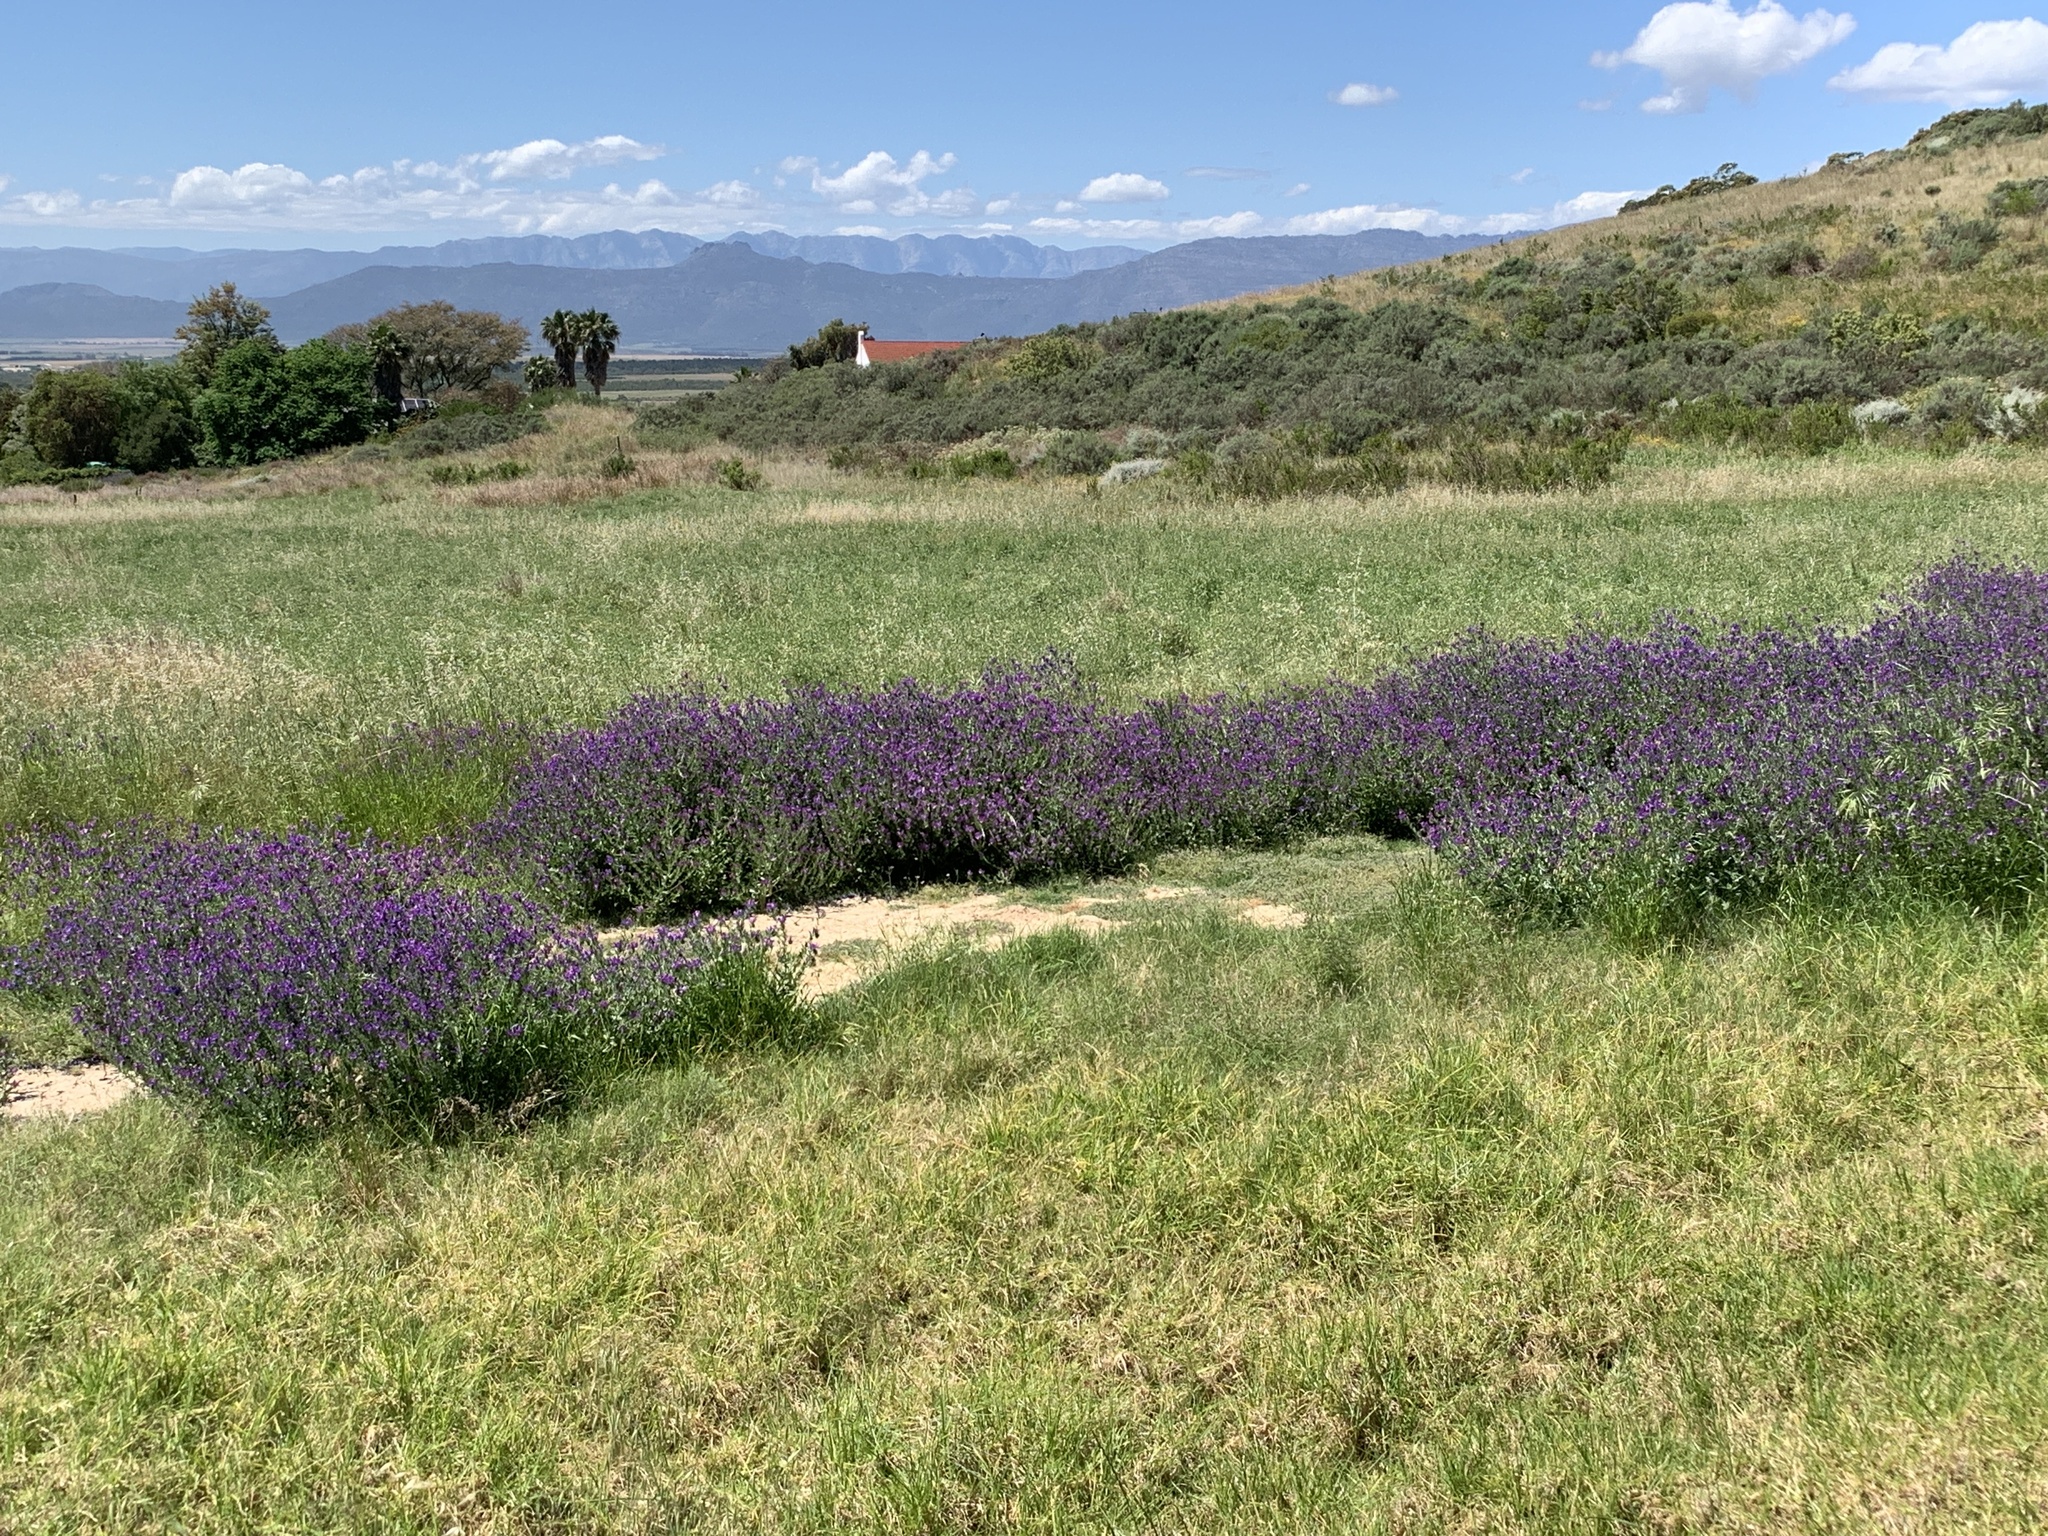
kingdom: Plantae
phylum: Tracheophyta
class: Magnoliopsida
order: Boraginales
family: Boraginaceae
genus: Echium
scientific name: Echium plantagineum
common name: Purple viper's-bugloss
